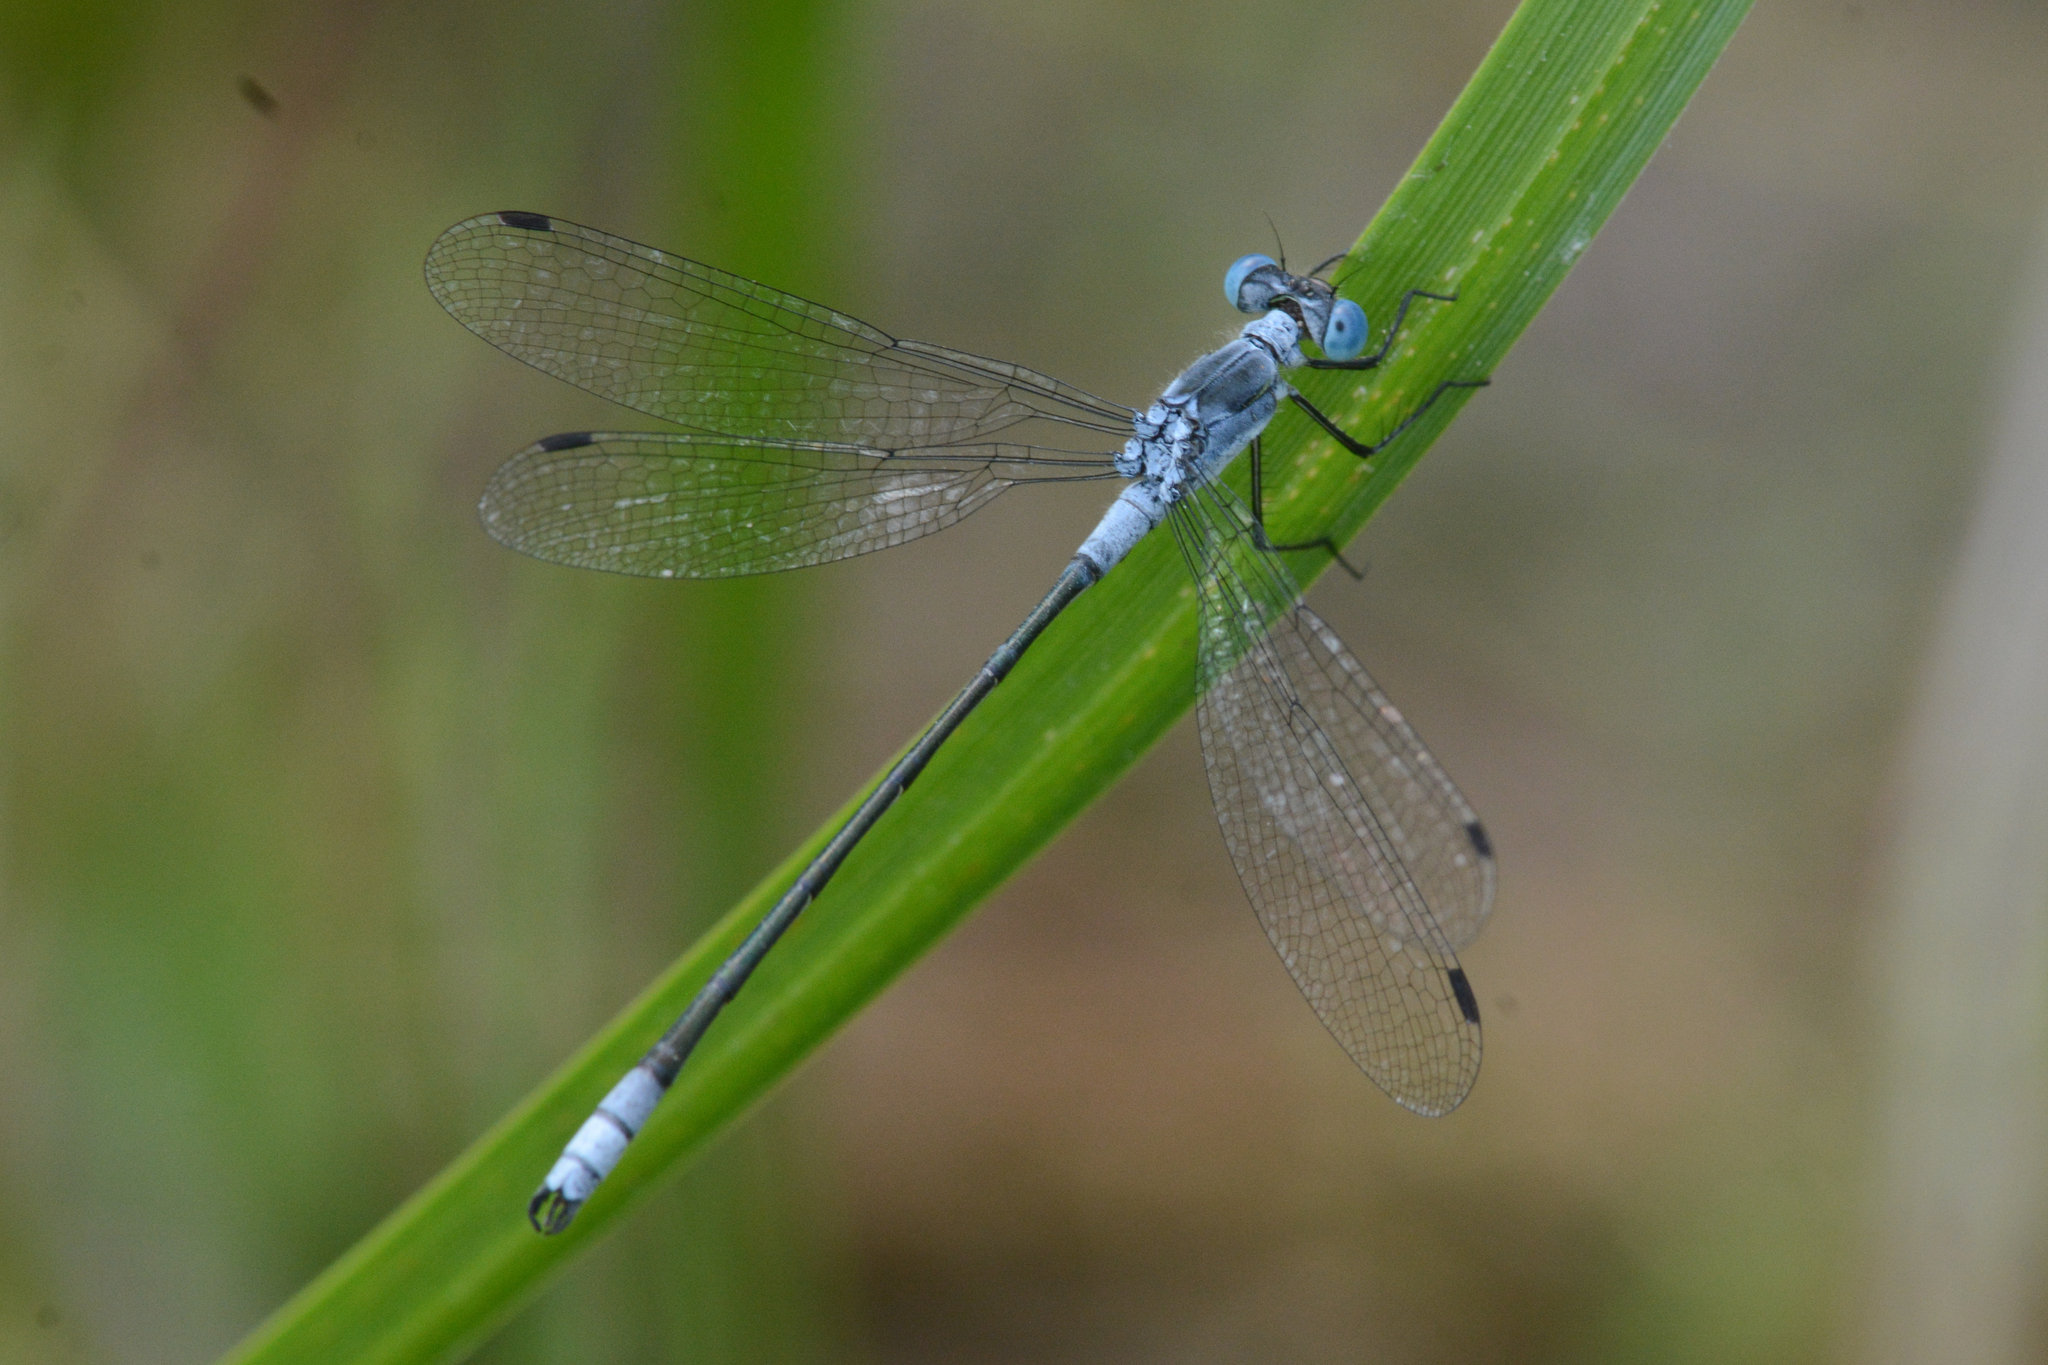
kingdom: Animalia
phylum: Arthropoda
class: Insecta
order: Odonata
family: Lestidae
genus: Lestes
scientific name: Lestes disjunctus
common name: Northern spreadwing
